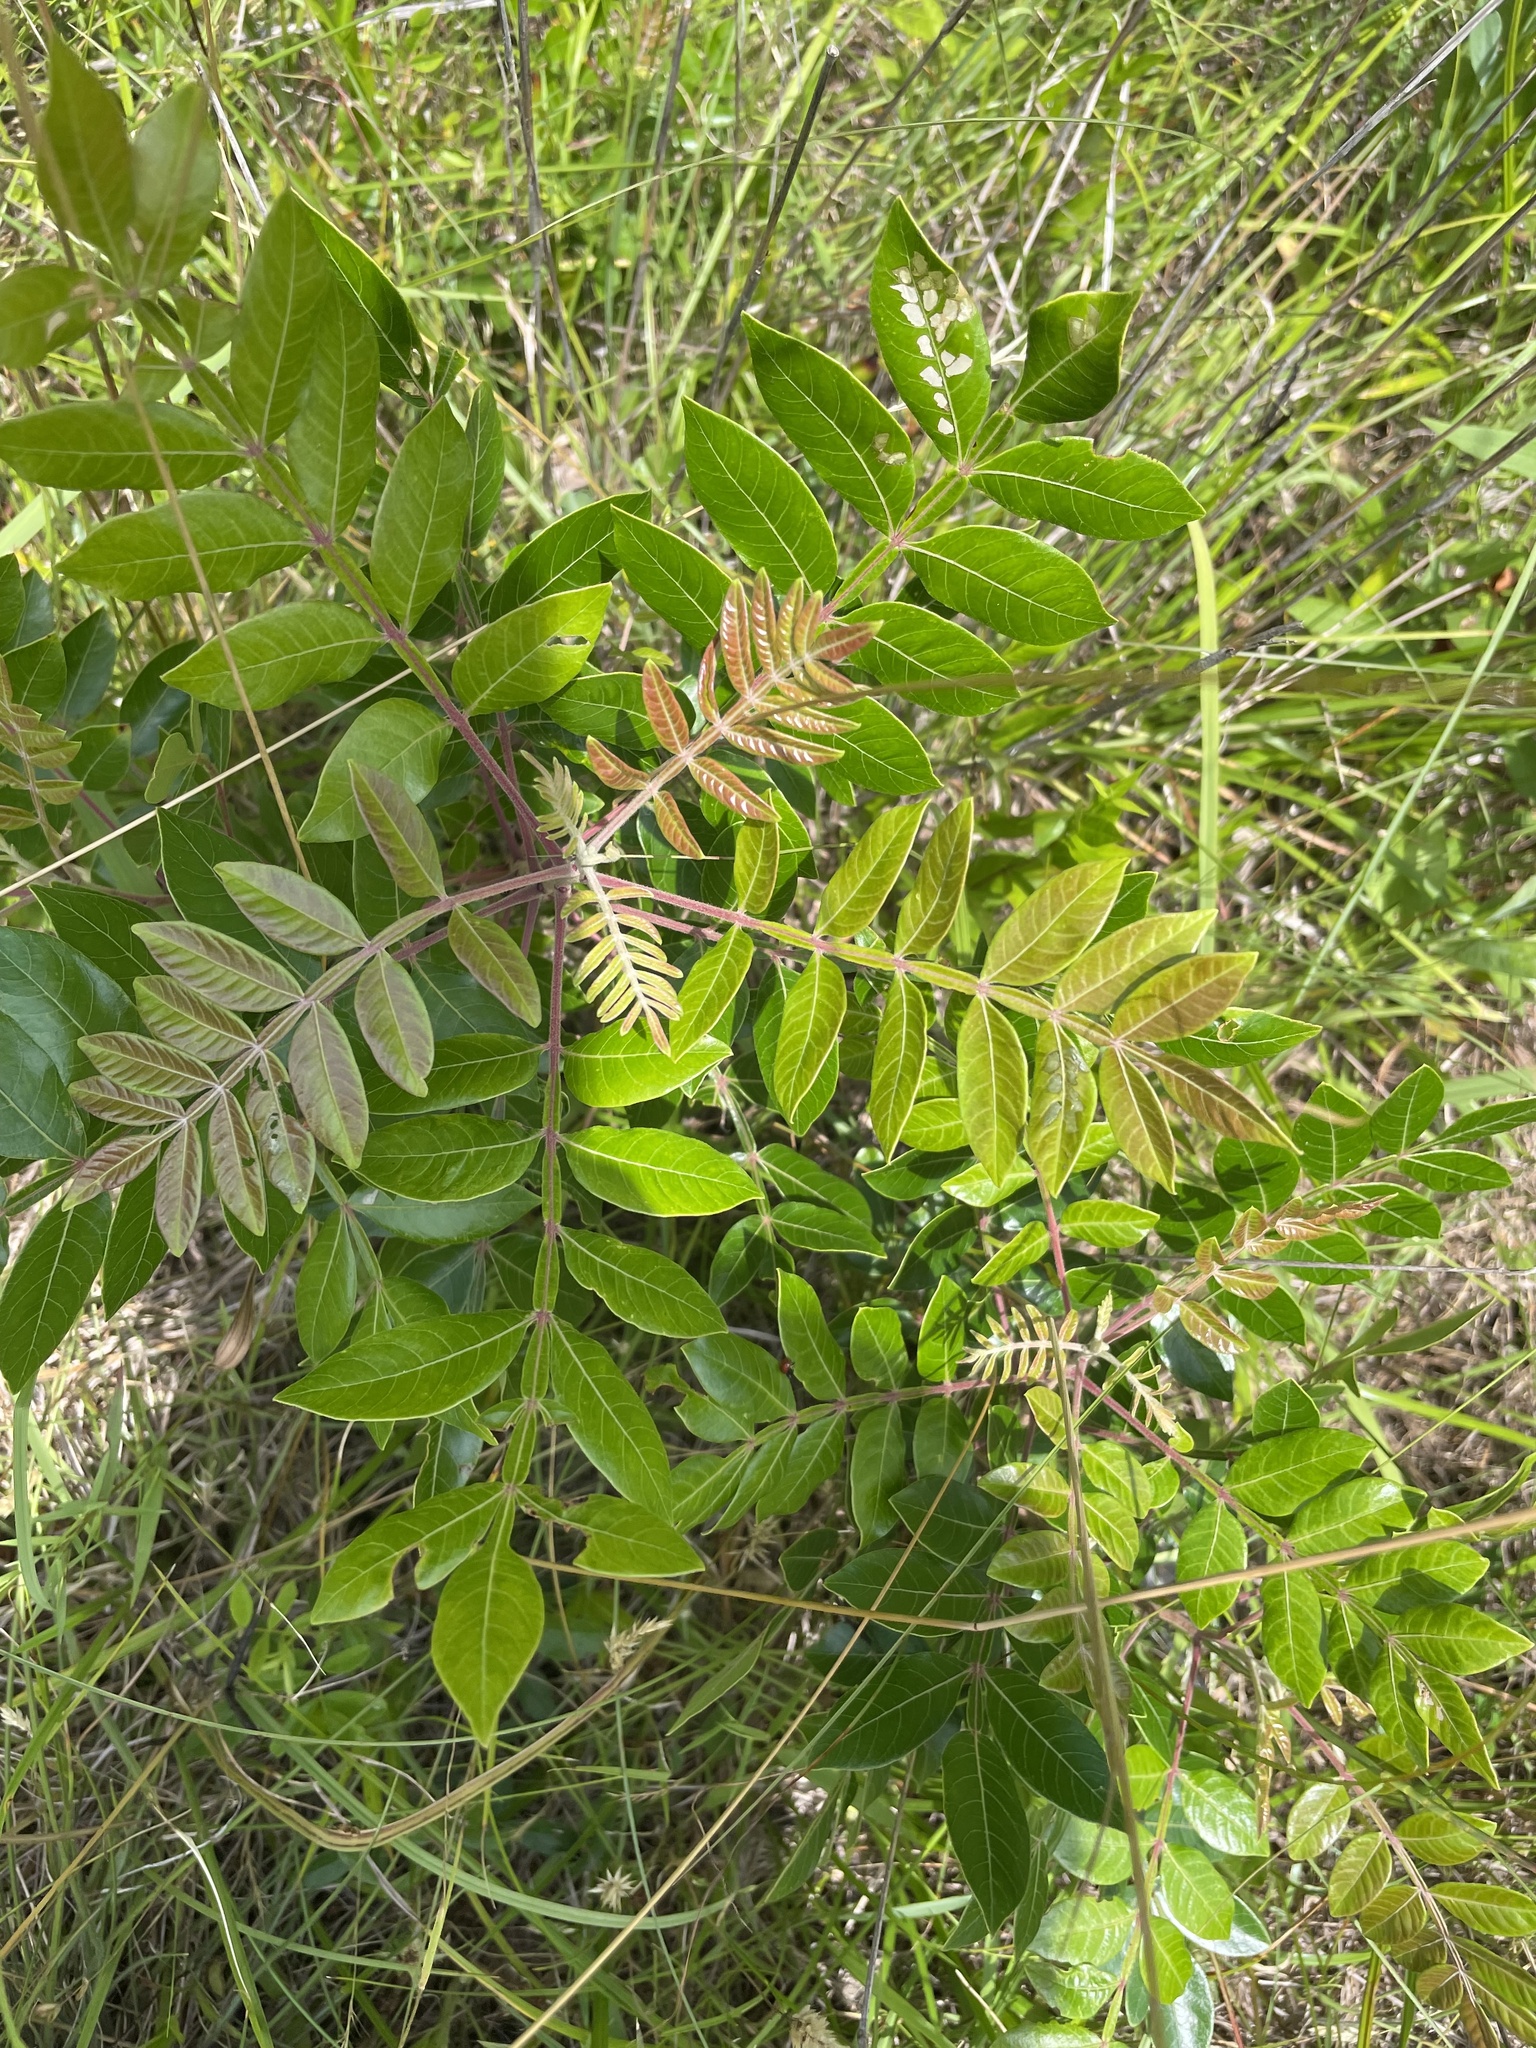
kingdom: Plantae
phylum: Tracheophyta
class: Magnoliopsida
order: Sapindales
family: Anacardiaceae
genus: Rhus
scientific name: Rhus copallina
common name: Shining sumac
